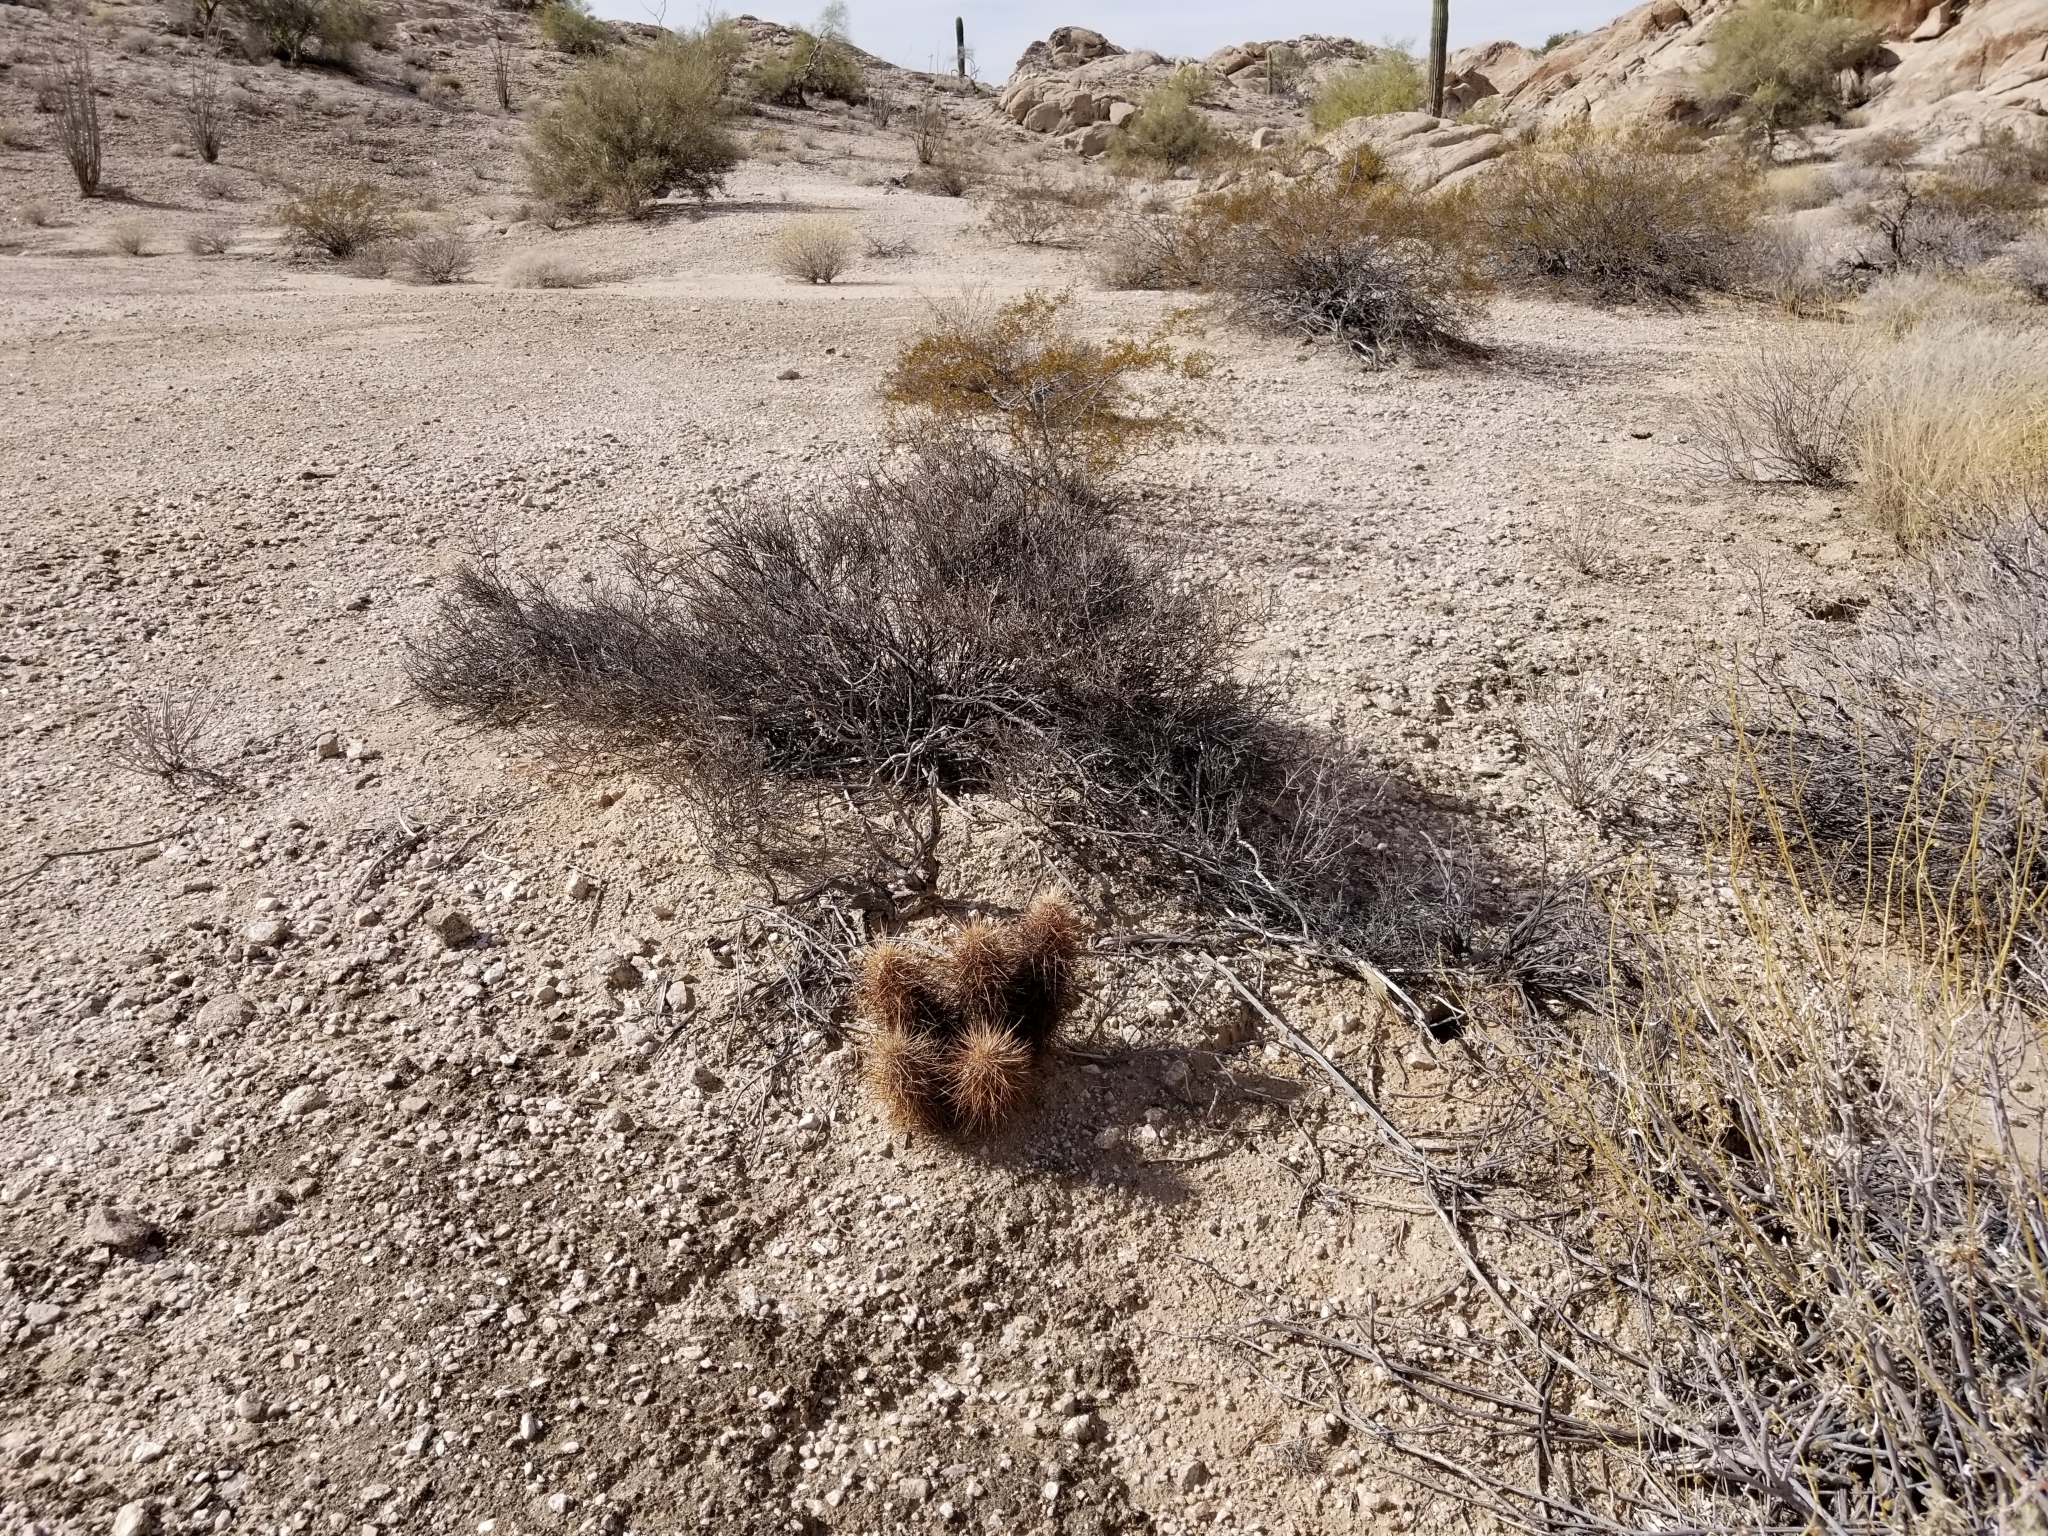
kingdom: Plantae
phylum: Tracheophyta
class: Magnoliopsida
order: Caryophyllales
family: Cactaceae
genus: Echinocereus
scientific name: Echinocereus engelmannii
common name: Engelmann's hedgehog cactus
